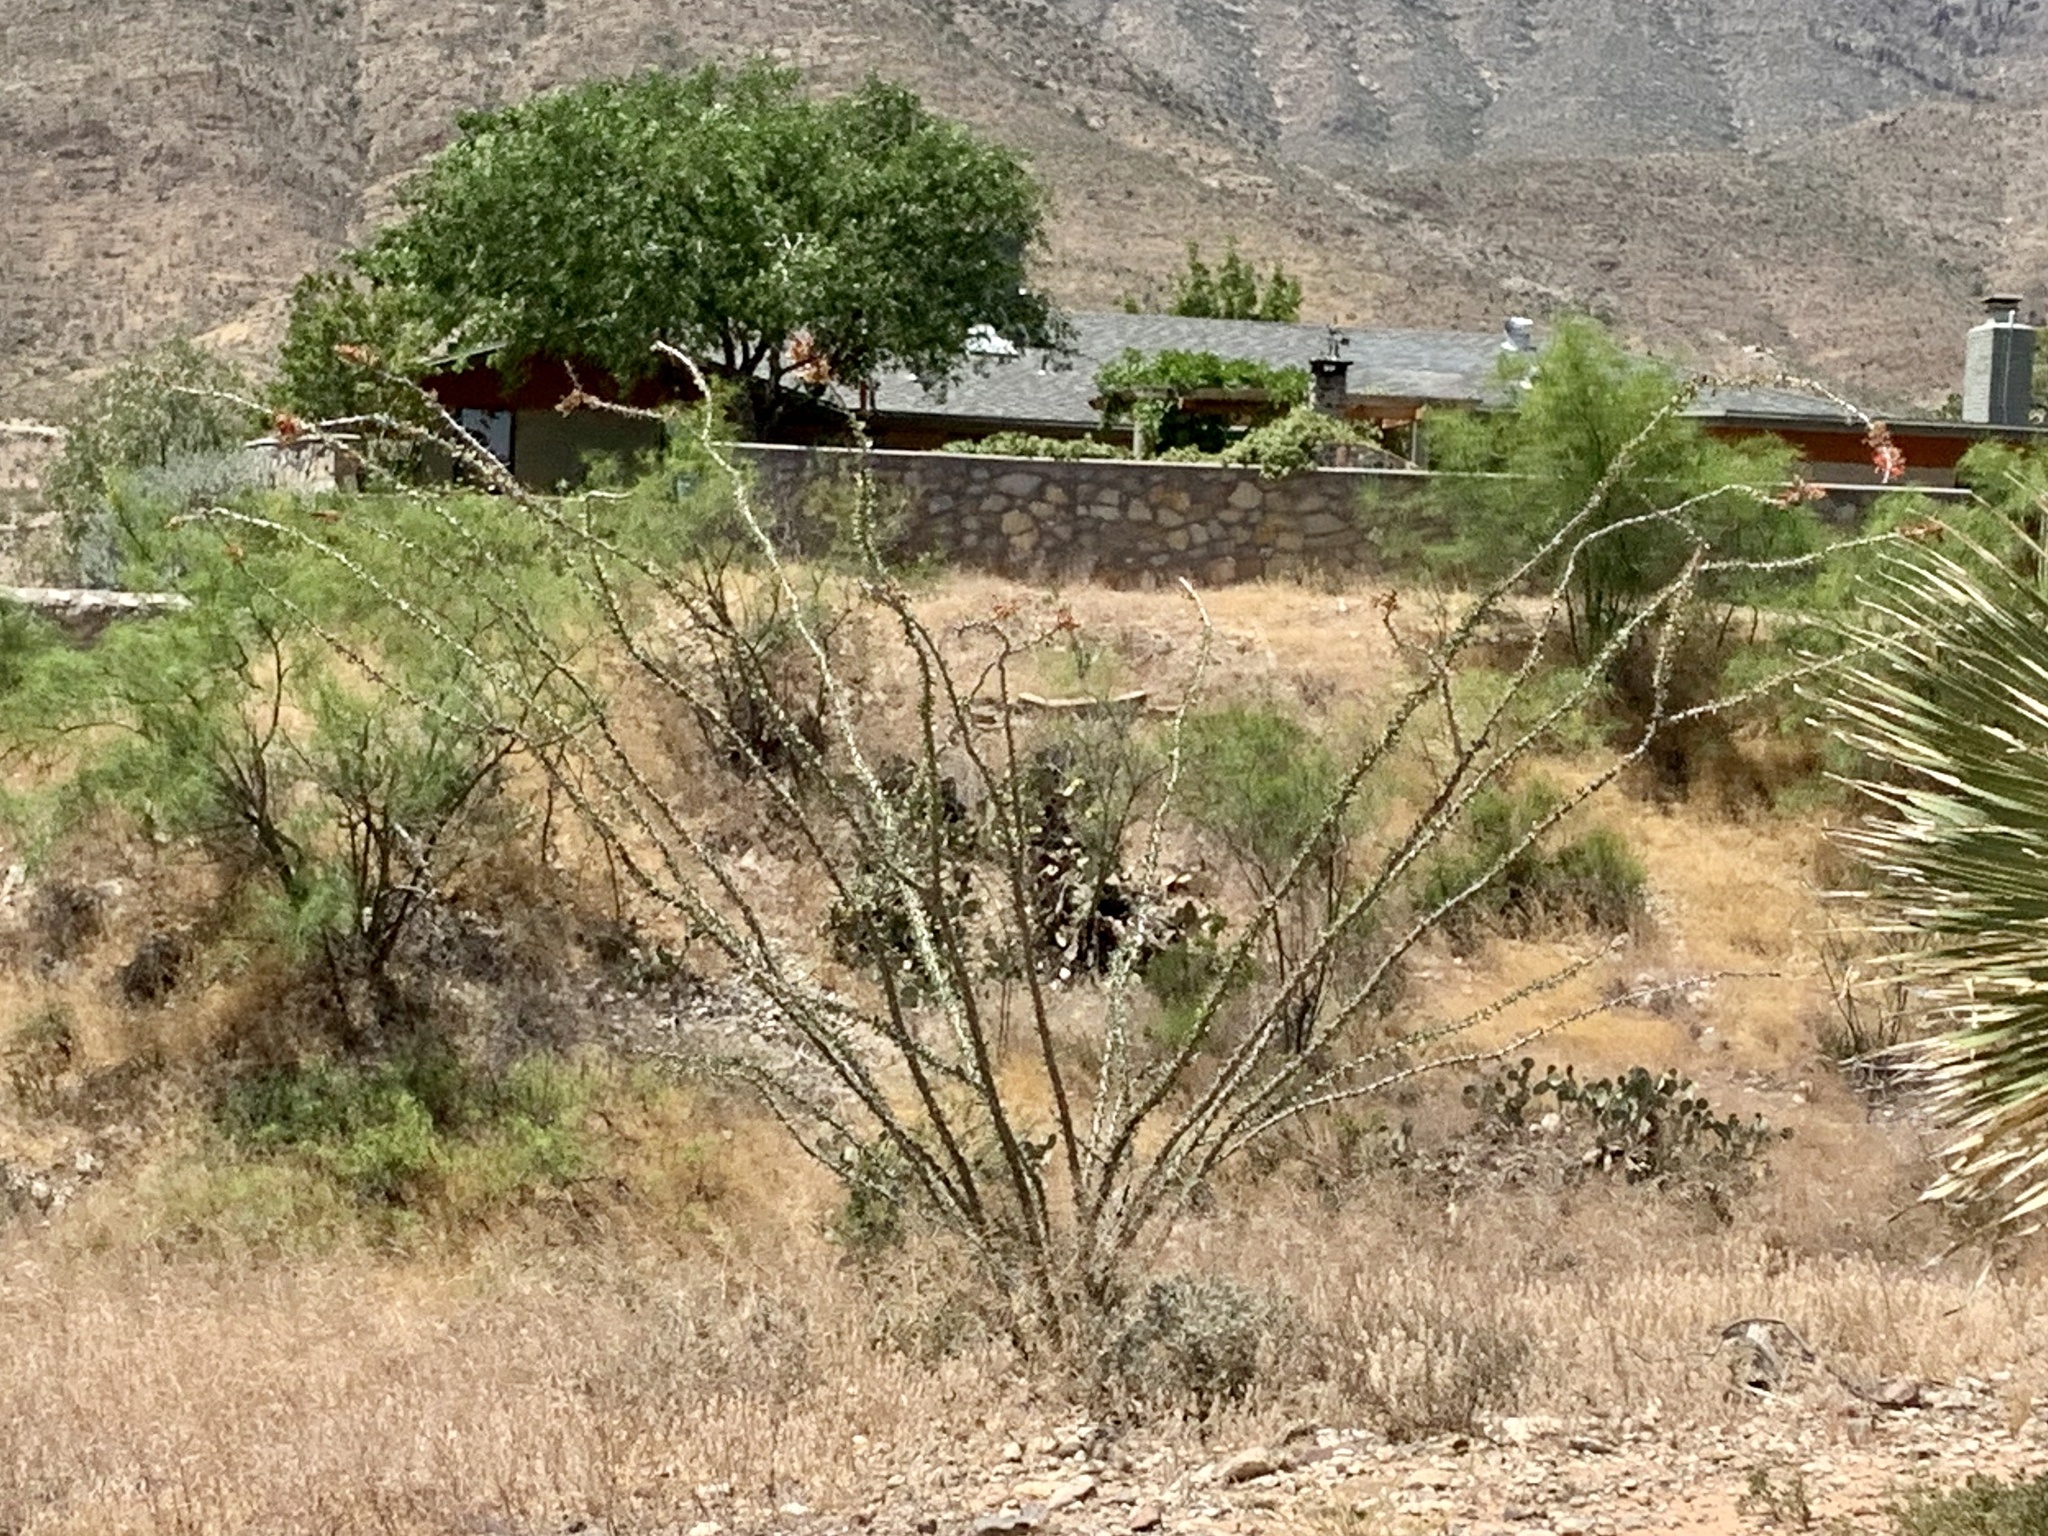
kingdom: Plantae
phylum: Tracheophyta
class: Magnoliopsida
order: Ericales
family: Fouquieriaceae
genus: Fouquieria
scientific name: Fouquieria splendens
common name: Vine-cactus
